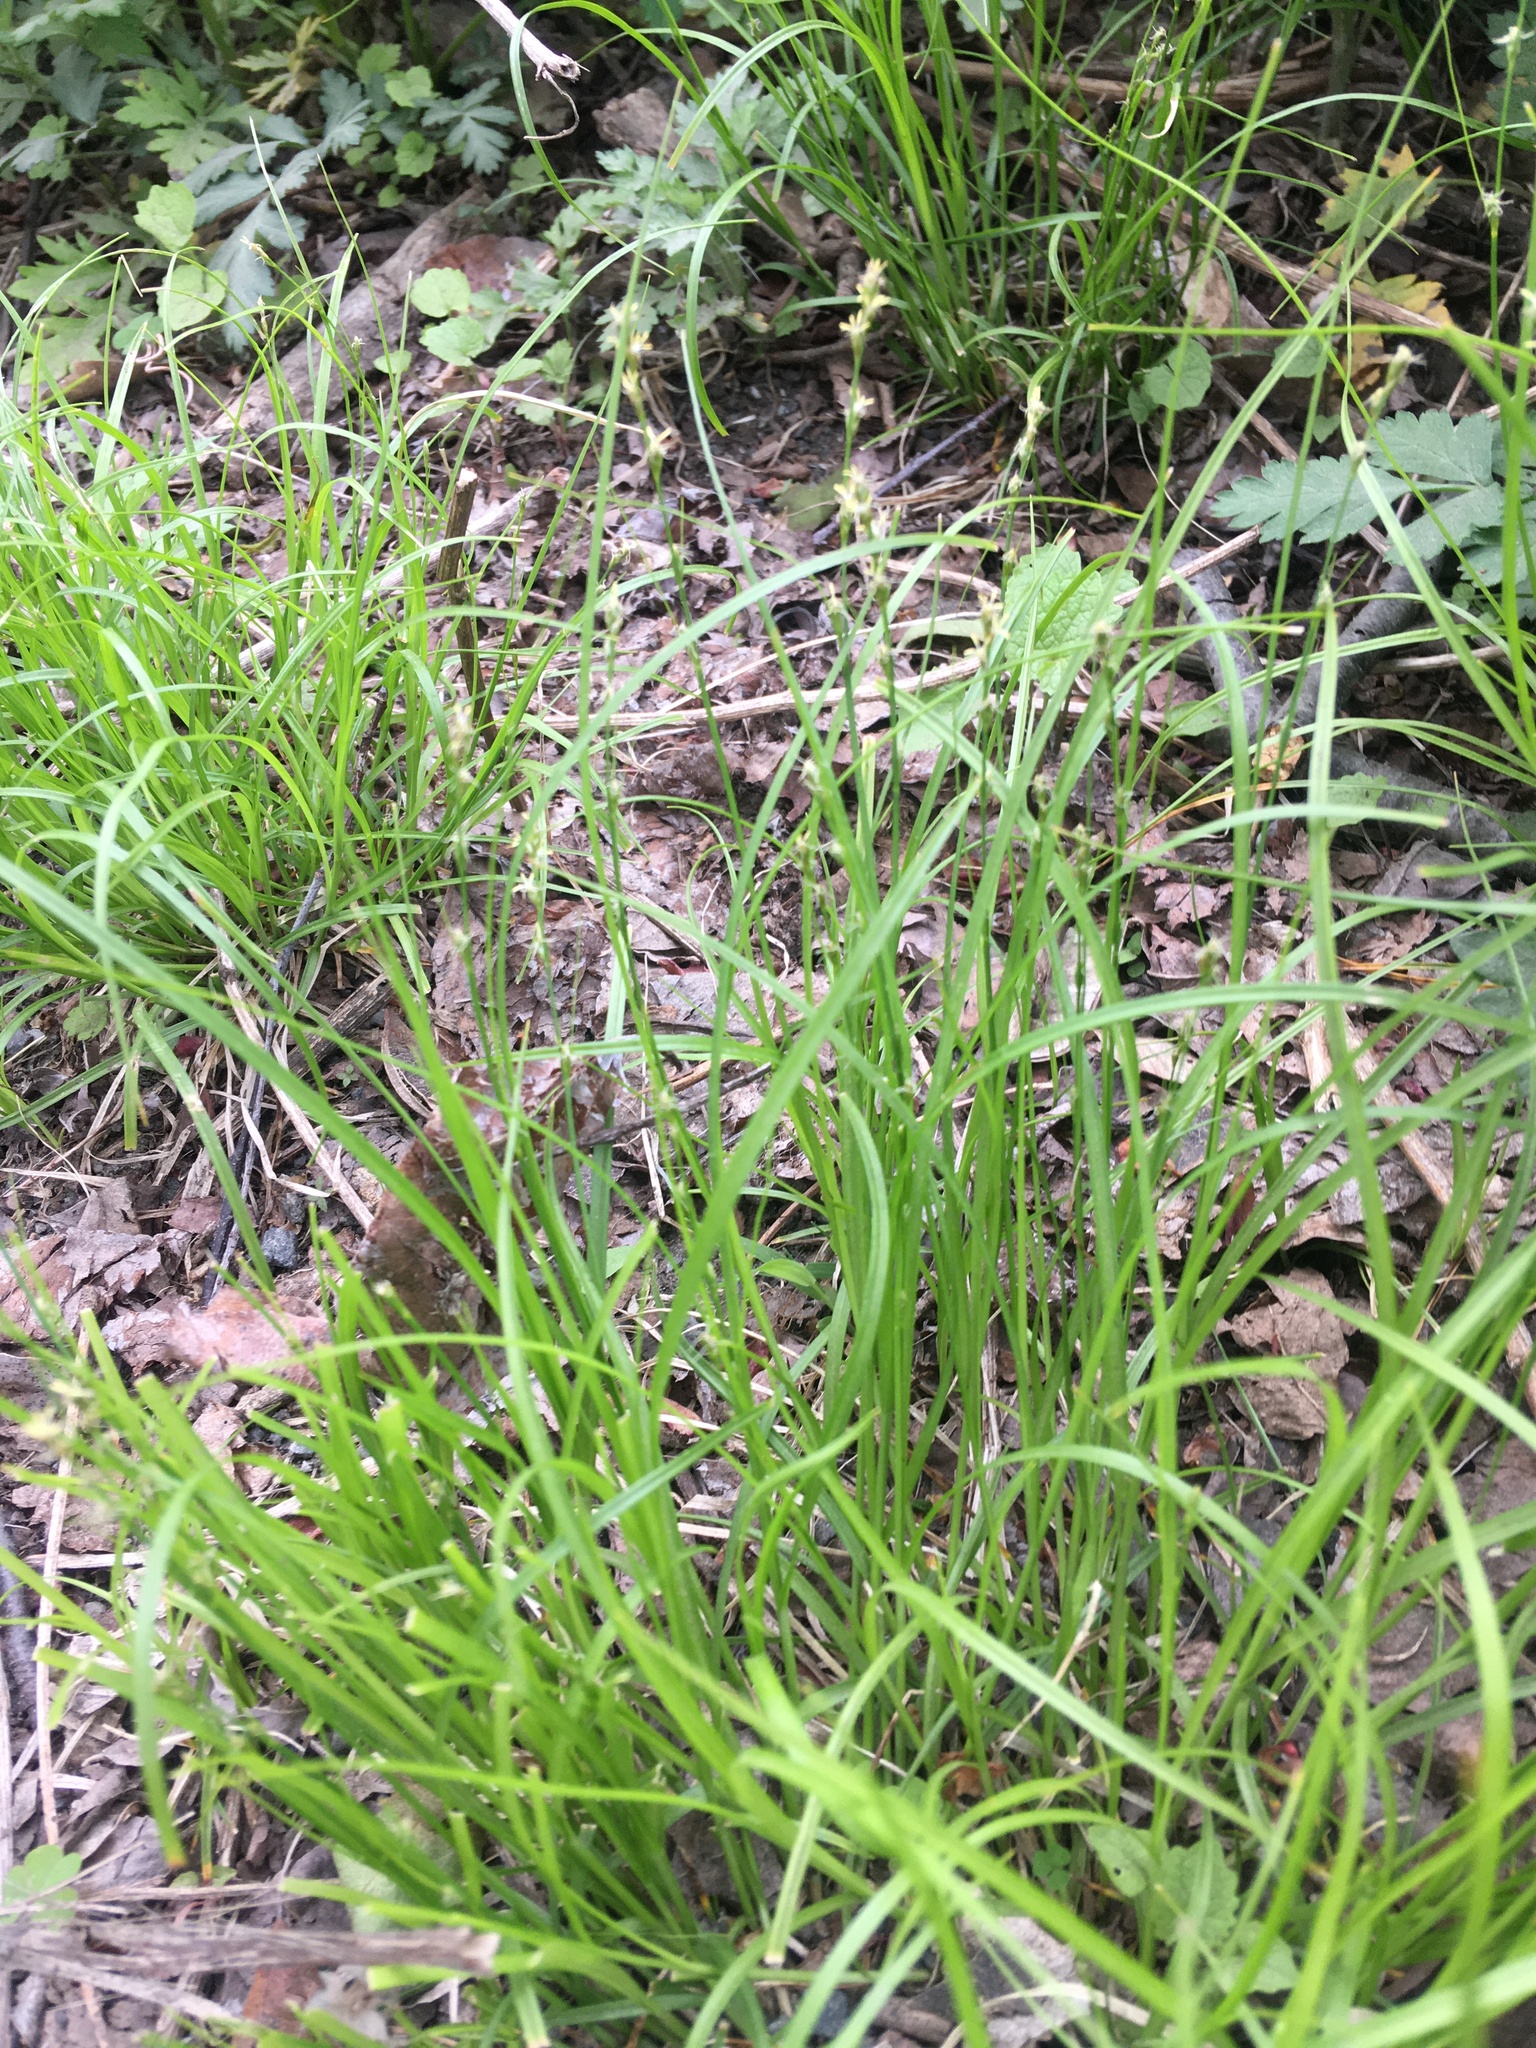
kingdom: Plantae
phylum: Tracheophyta
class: Liliopsida
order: Poales
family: Cyperaceae
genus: Carex
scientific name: Carex sparganioides
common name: Burreed sedge
